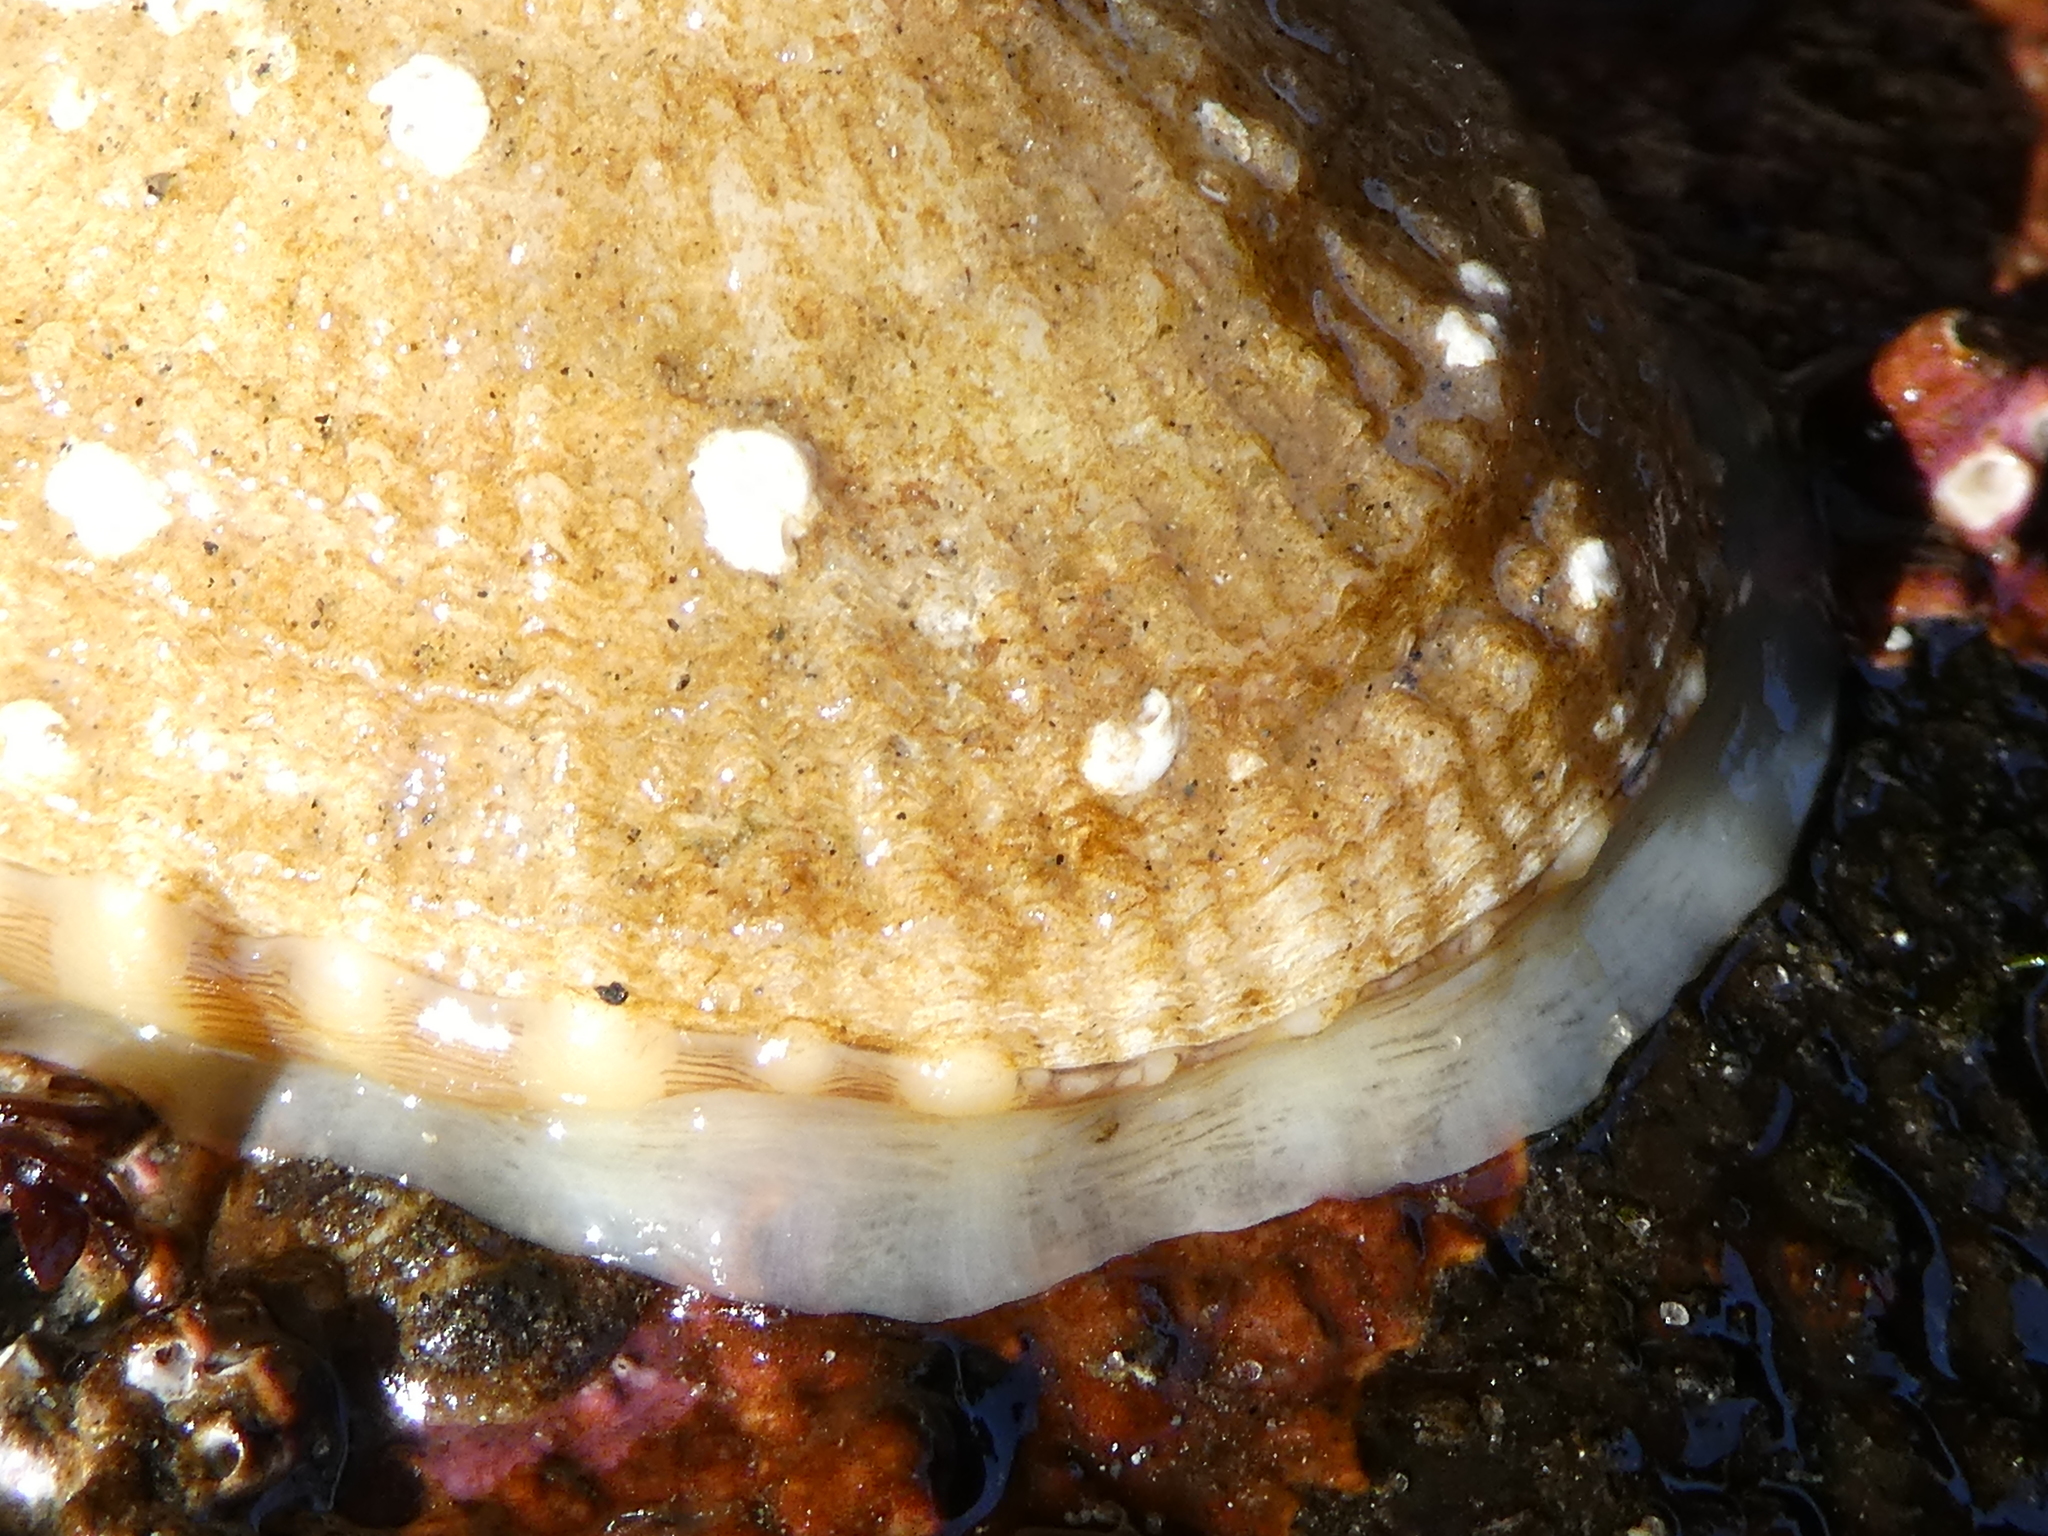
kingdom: Animalia
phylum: Mollusca
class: Gastropoda
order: Lepetellida
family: Fissurellidae
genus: Diodora
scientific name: Diodora aspera
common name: Rough keyhole limpet
